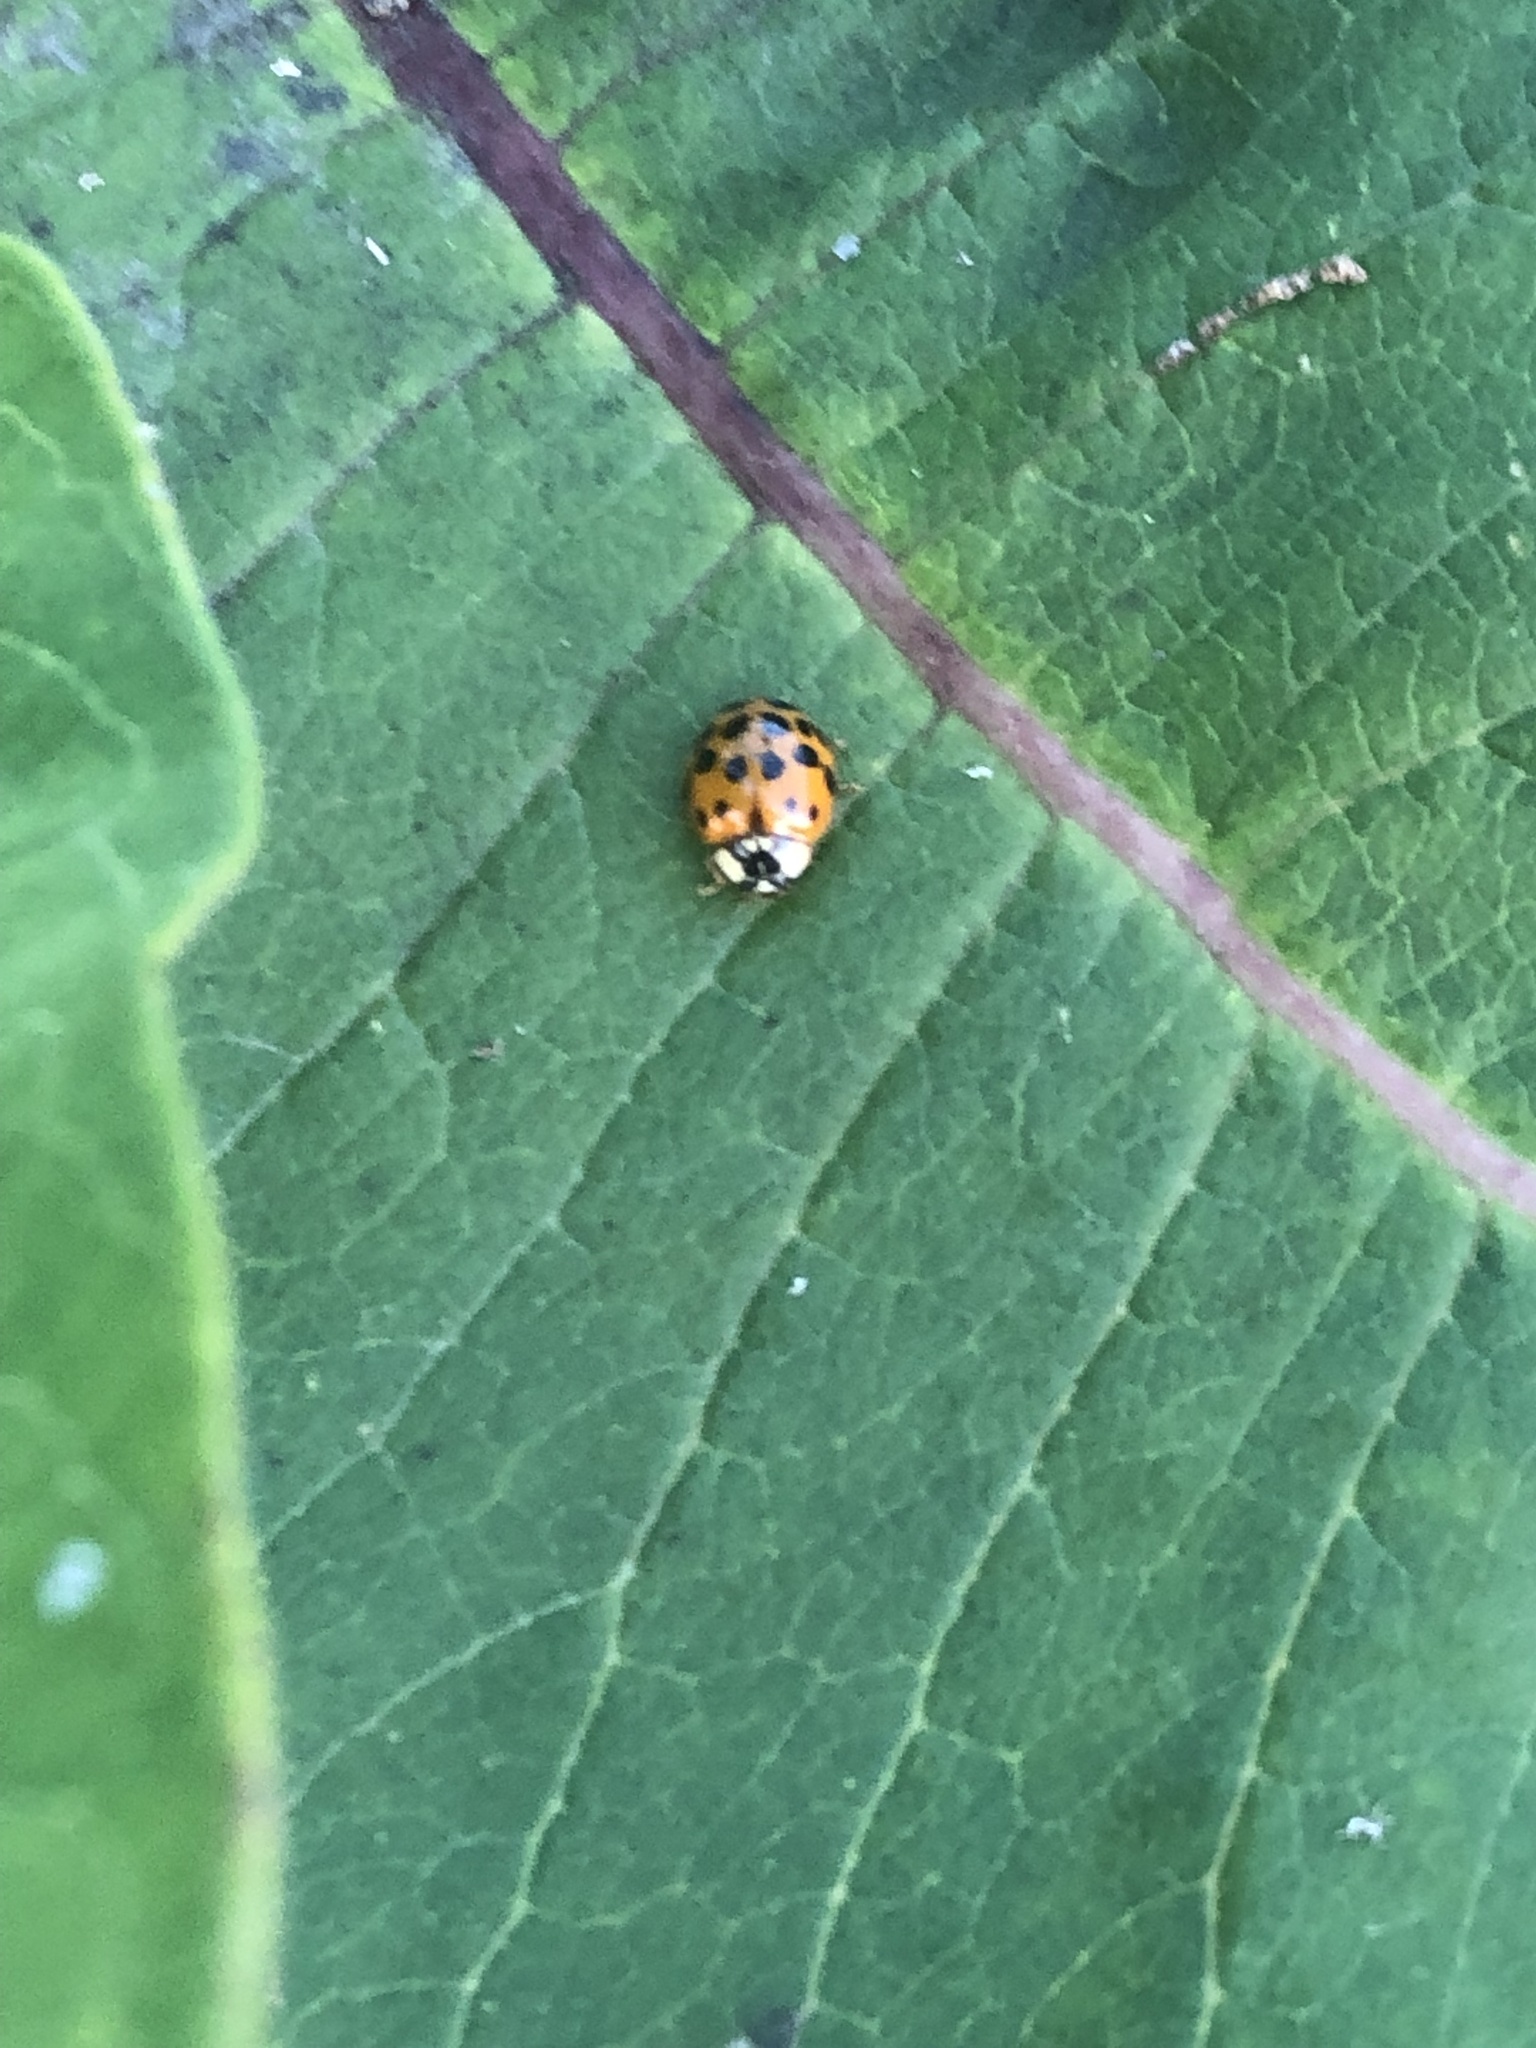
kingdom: Animalia
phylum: Arthropoda
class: Insecta
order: Coleoptera
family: Coccinellidae
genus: Harmonia
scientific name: Harmonia axyridis
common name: Harlequin ladybird
